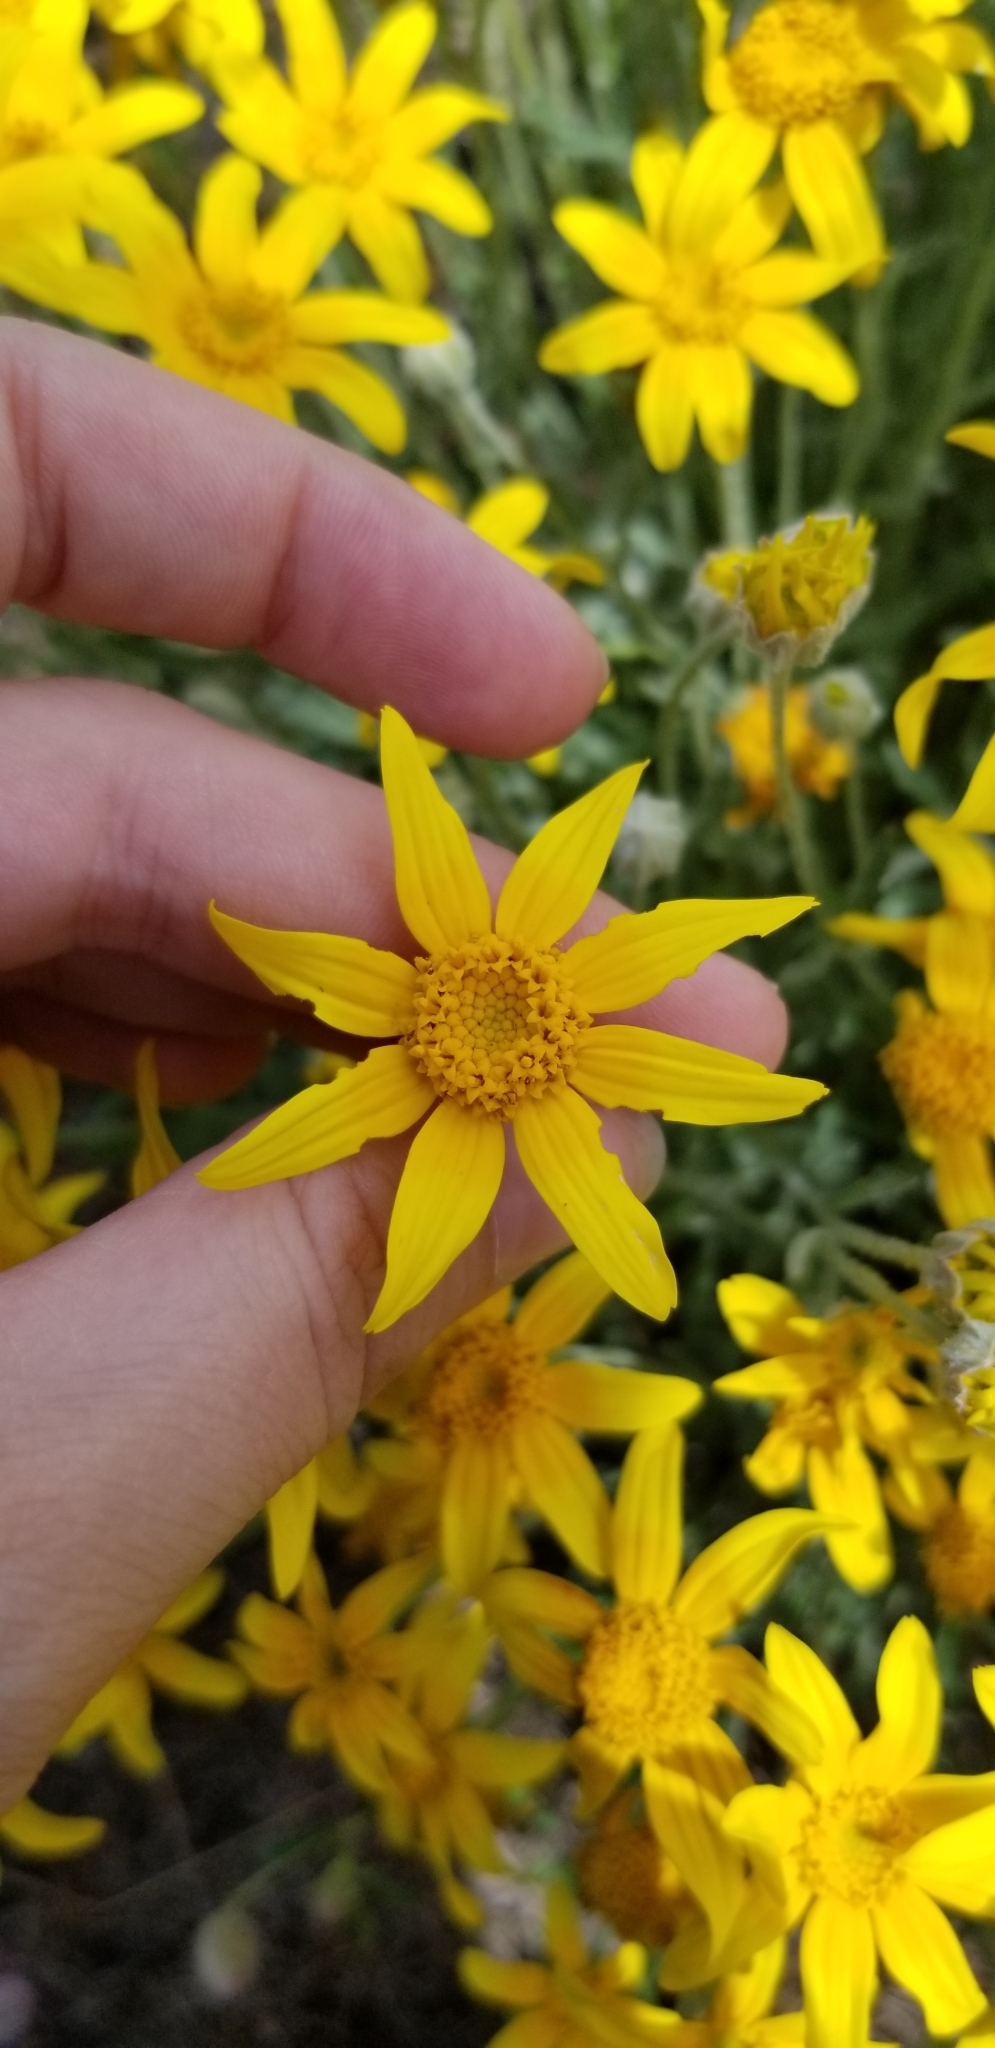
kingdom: Plantae
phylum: Tracheophyta
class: Magnoliopsida
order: Asterales
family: Asteraceae
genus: Eriophyllum
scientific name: Eriophyllum lanatum
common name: Common woolly-sunflower
